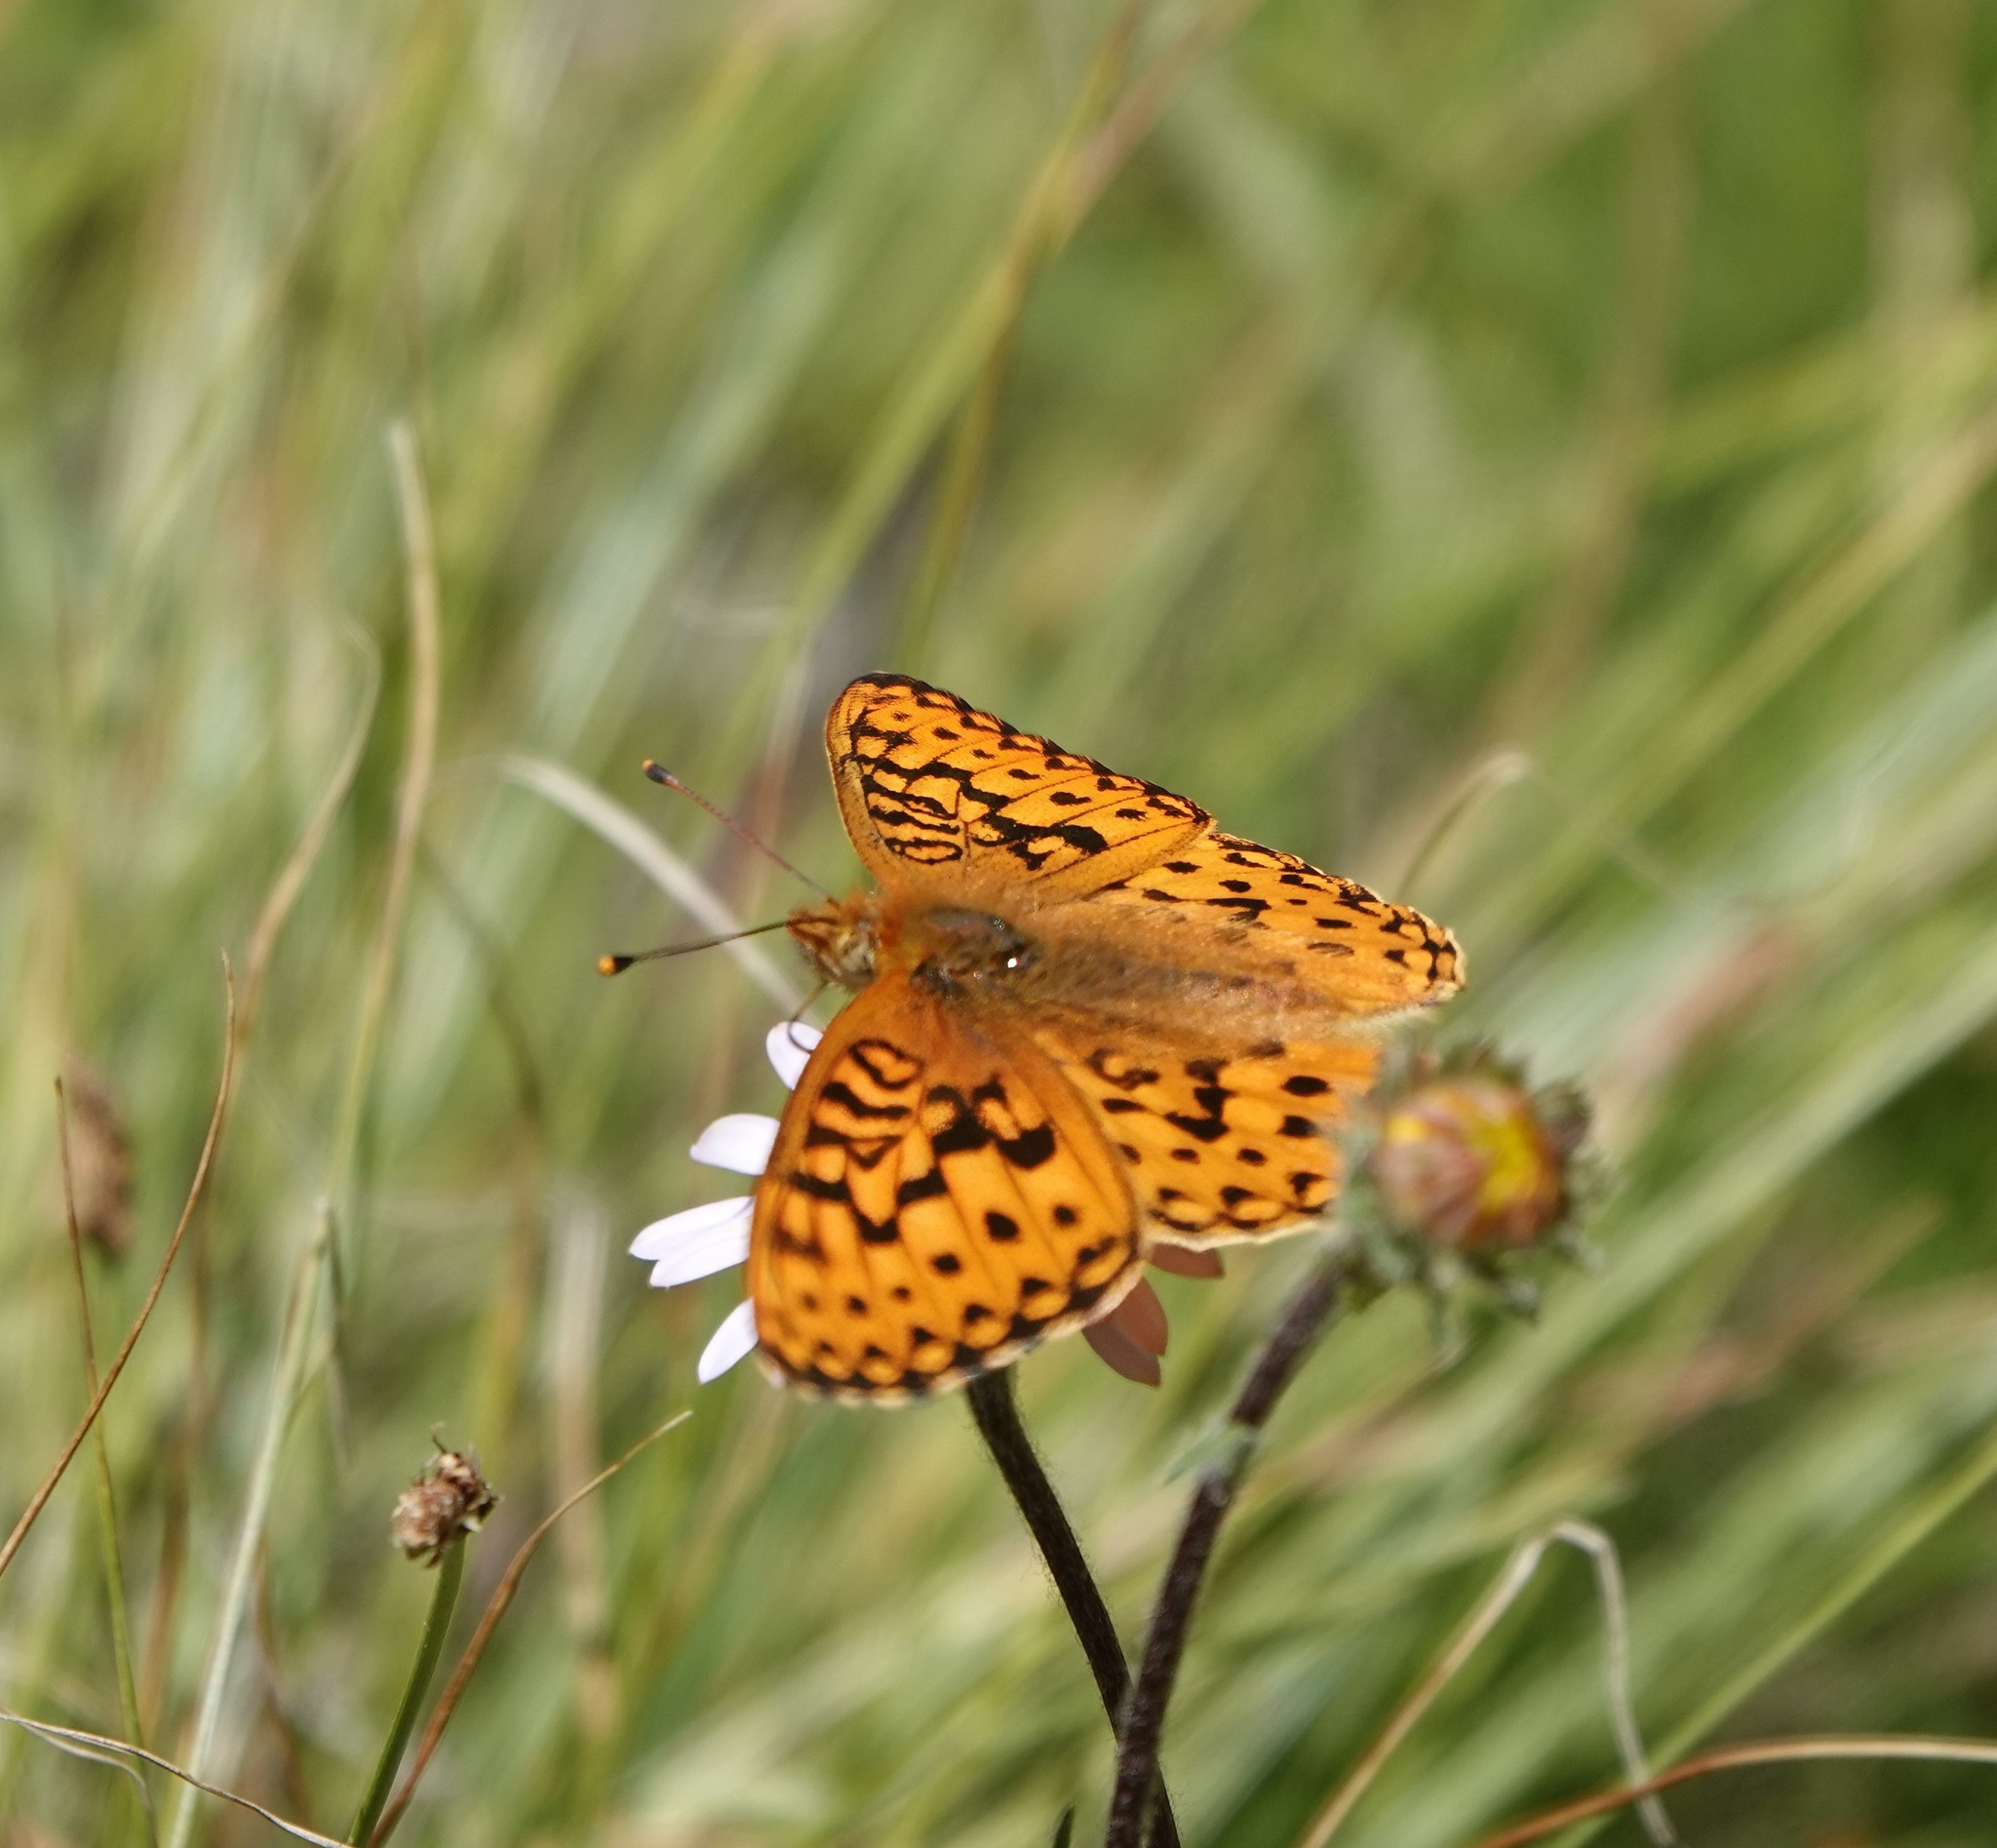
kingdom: Animalia
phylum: Arthropoda
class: Insecta
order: Lepidoptera
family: Nymphalidae
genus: Speyeria
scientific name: Speyeria mormonia
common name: Mormon fritillary
